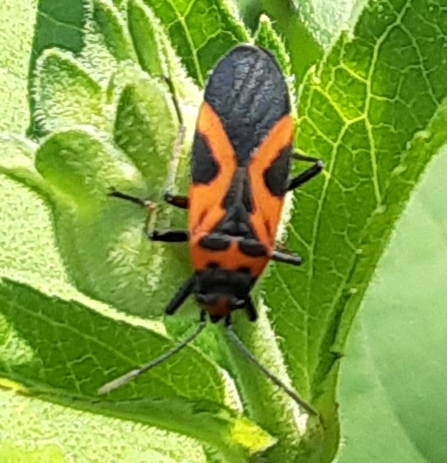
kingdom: Animalia
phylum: Arthropoda
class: Insecta
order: Hemiptera
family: Lygaeidae
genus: Lygaeus
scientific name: Lygaeus turcicus
